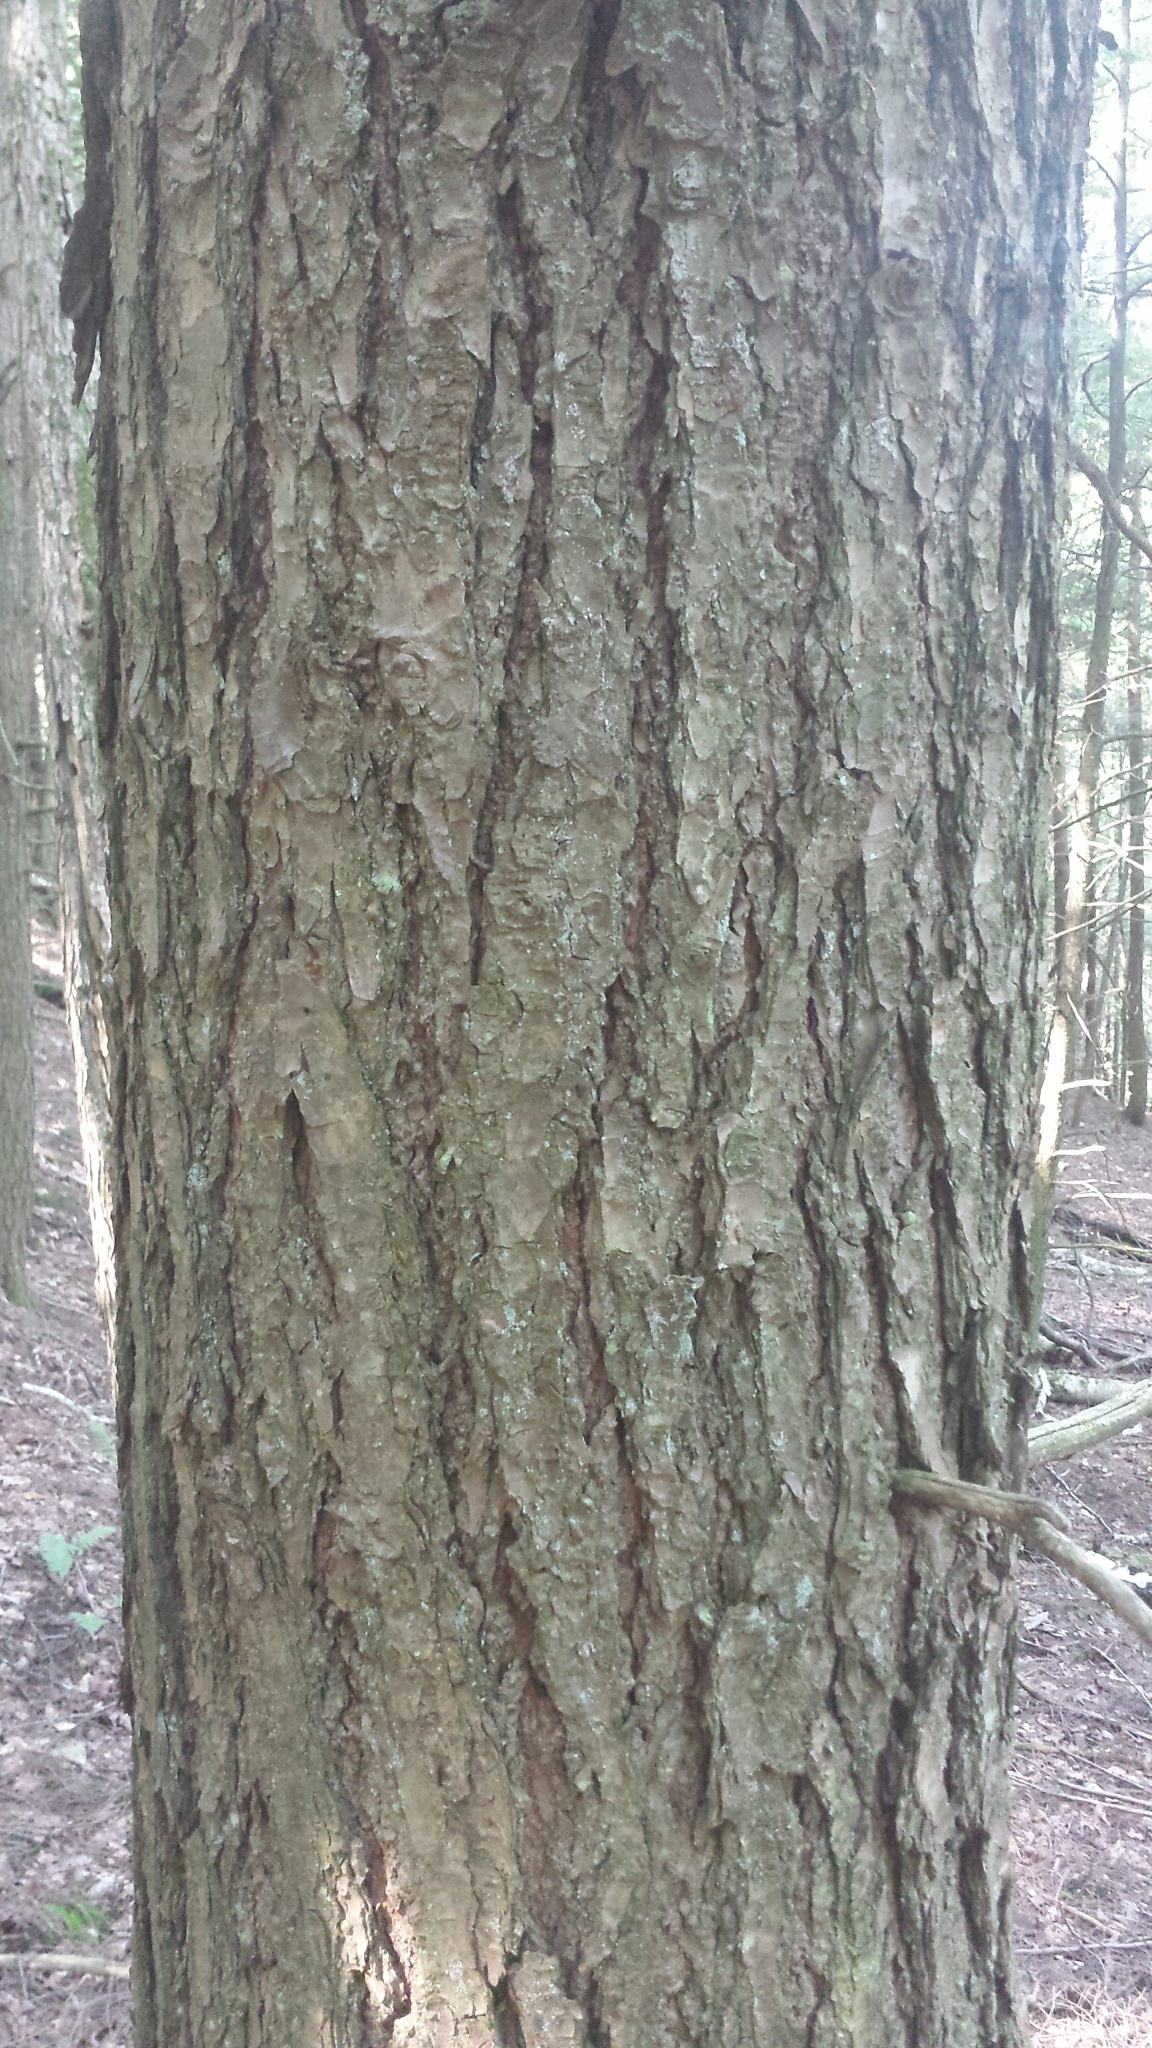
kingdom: Plantae
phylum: Tracheophyta
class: Pinopsida
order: Pinales
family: Pinaceae
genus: Tsuga
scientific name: Tsuga canadensis
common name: Eastern hemlock
